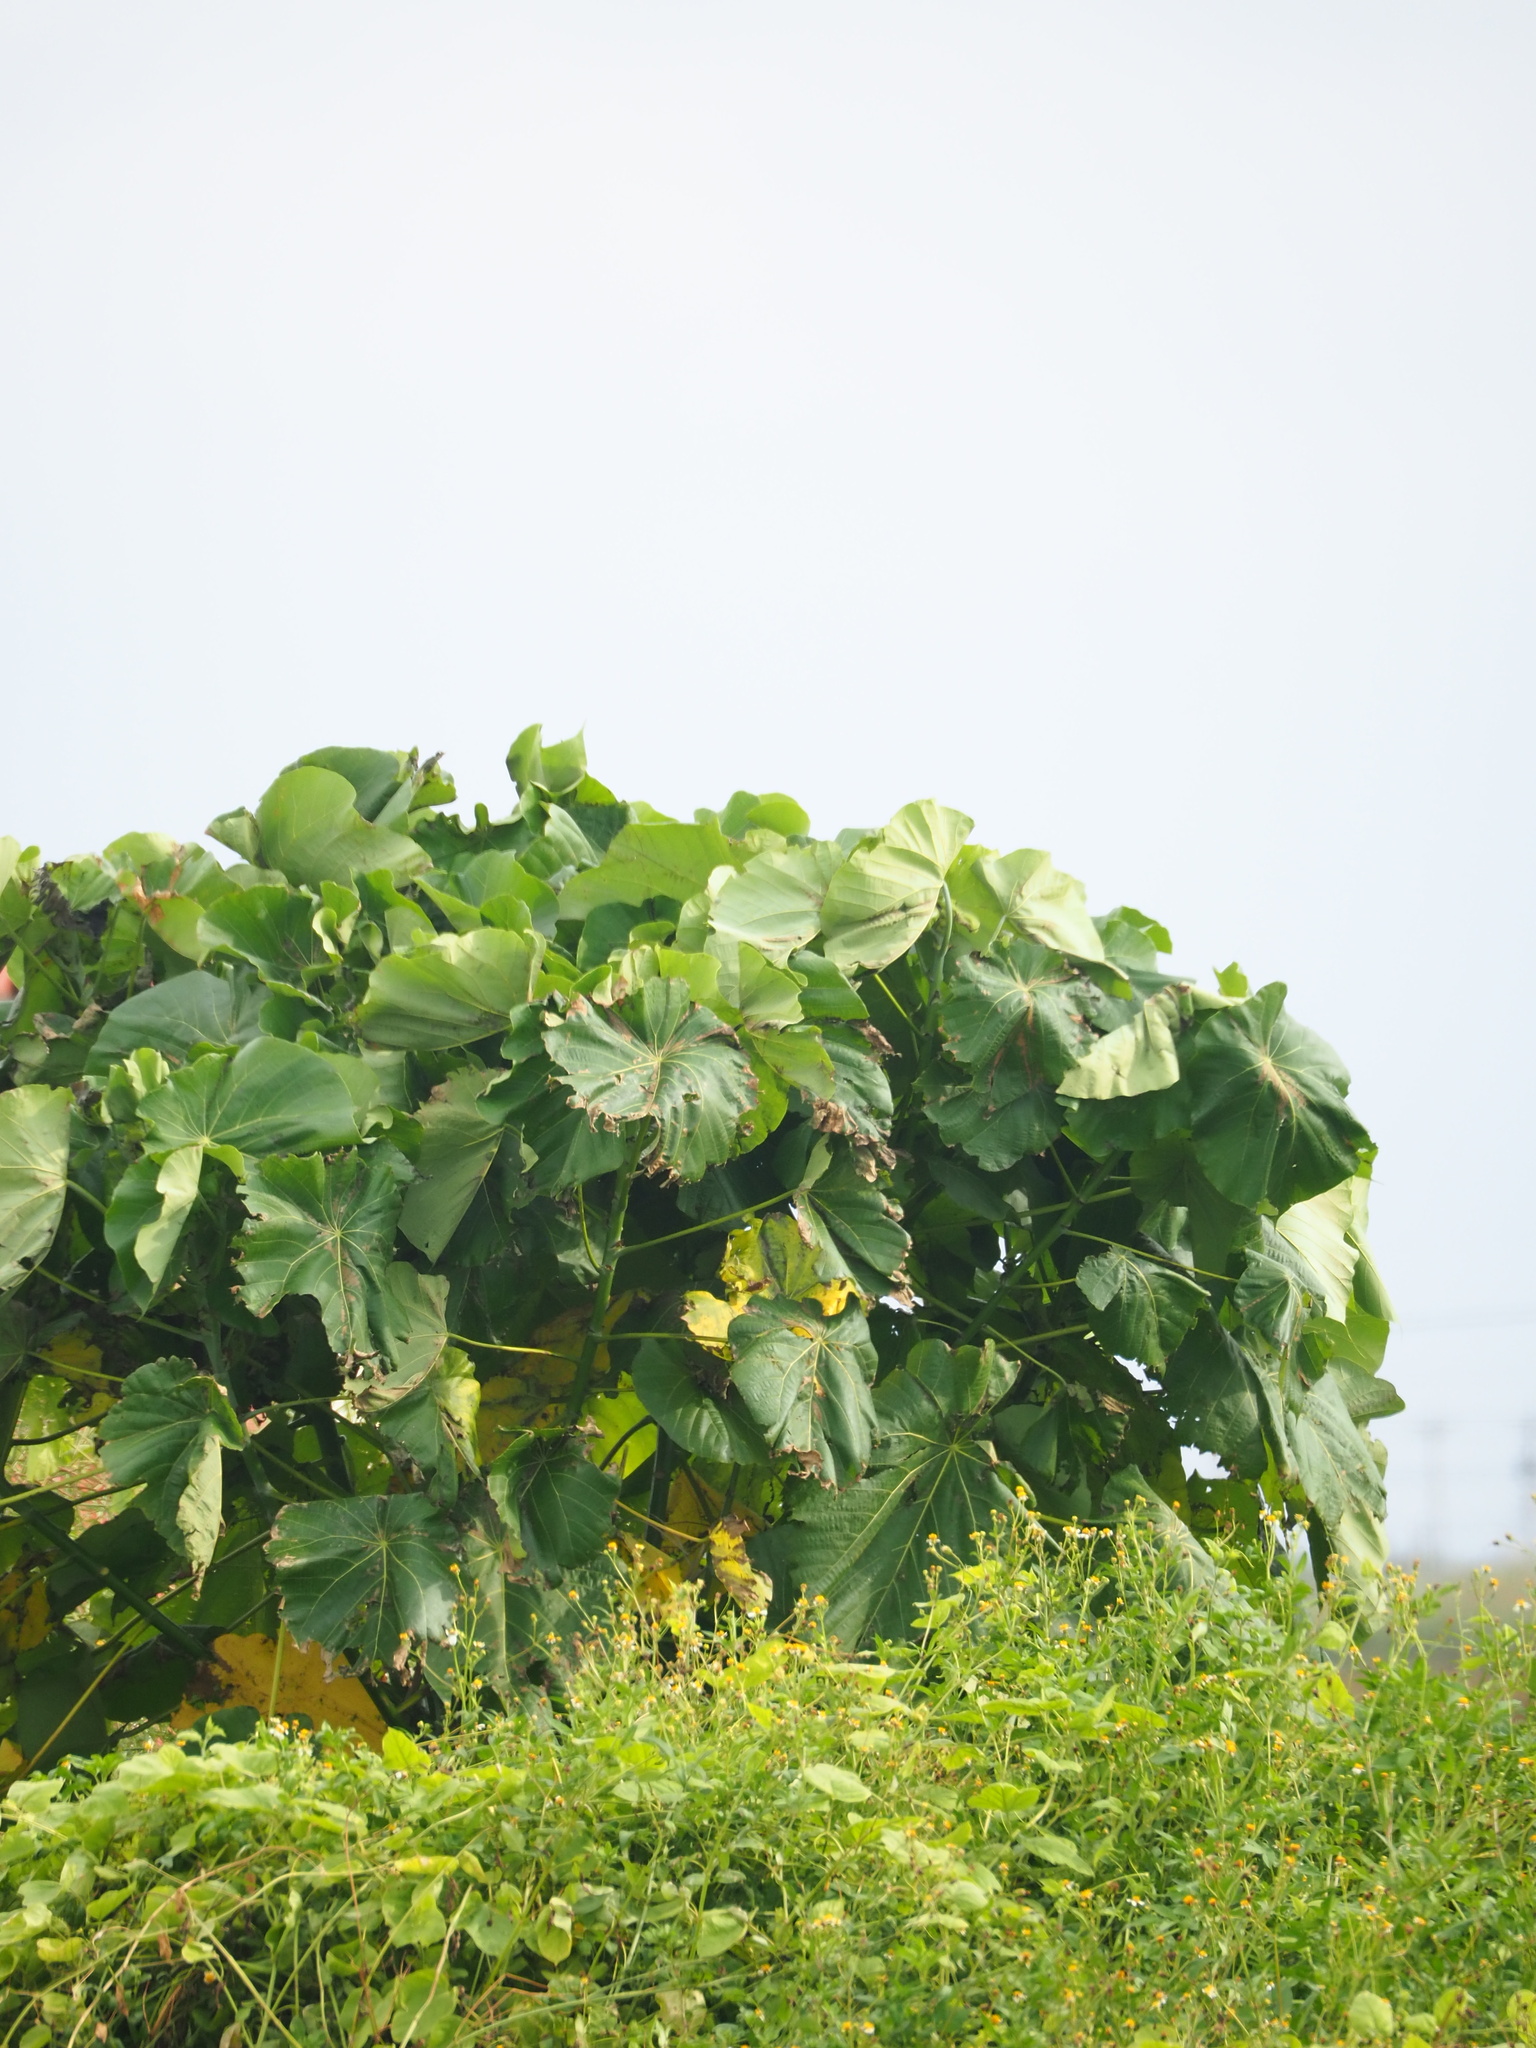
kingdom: Plantae
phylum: Tracheophyta
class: Magnoliopsida
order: Malpighiales
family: Euphorbiaceae
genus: Macaranga
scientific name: Macaranga tanarius
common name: Parasol leaf tree
